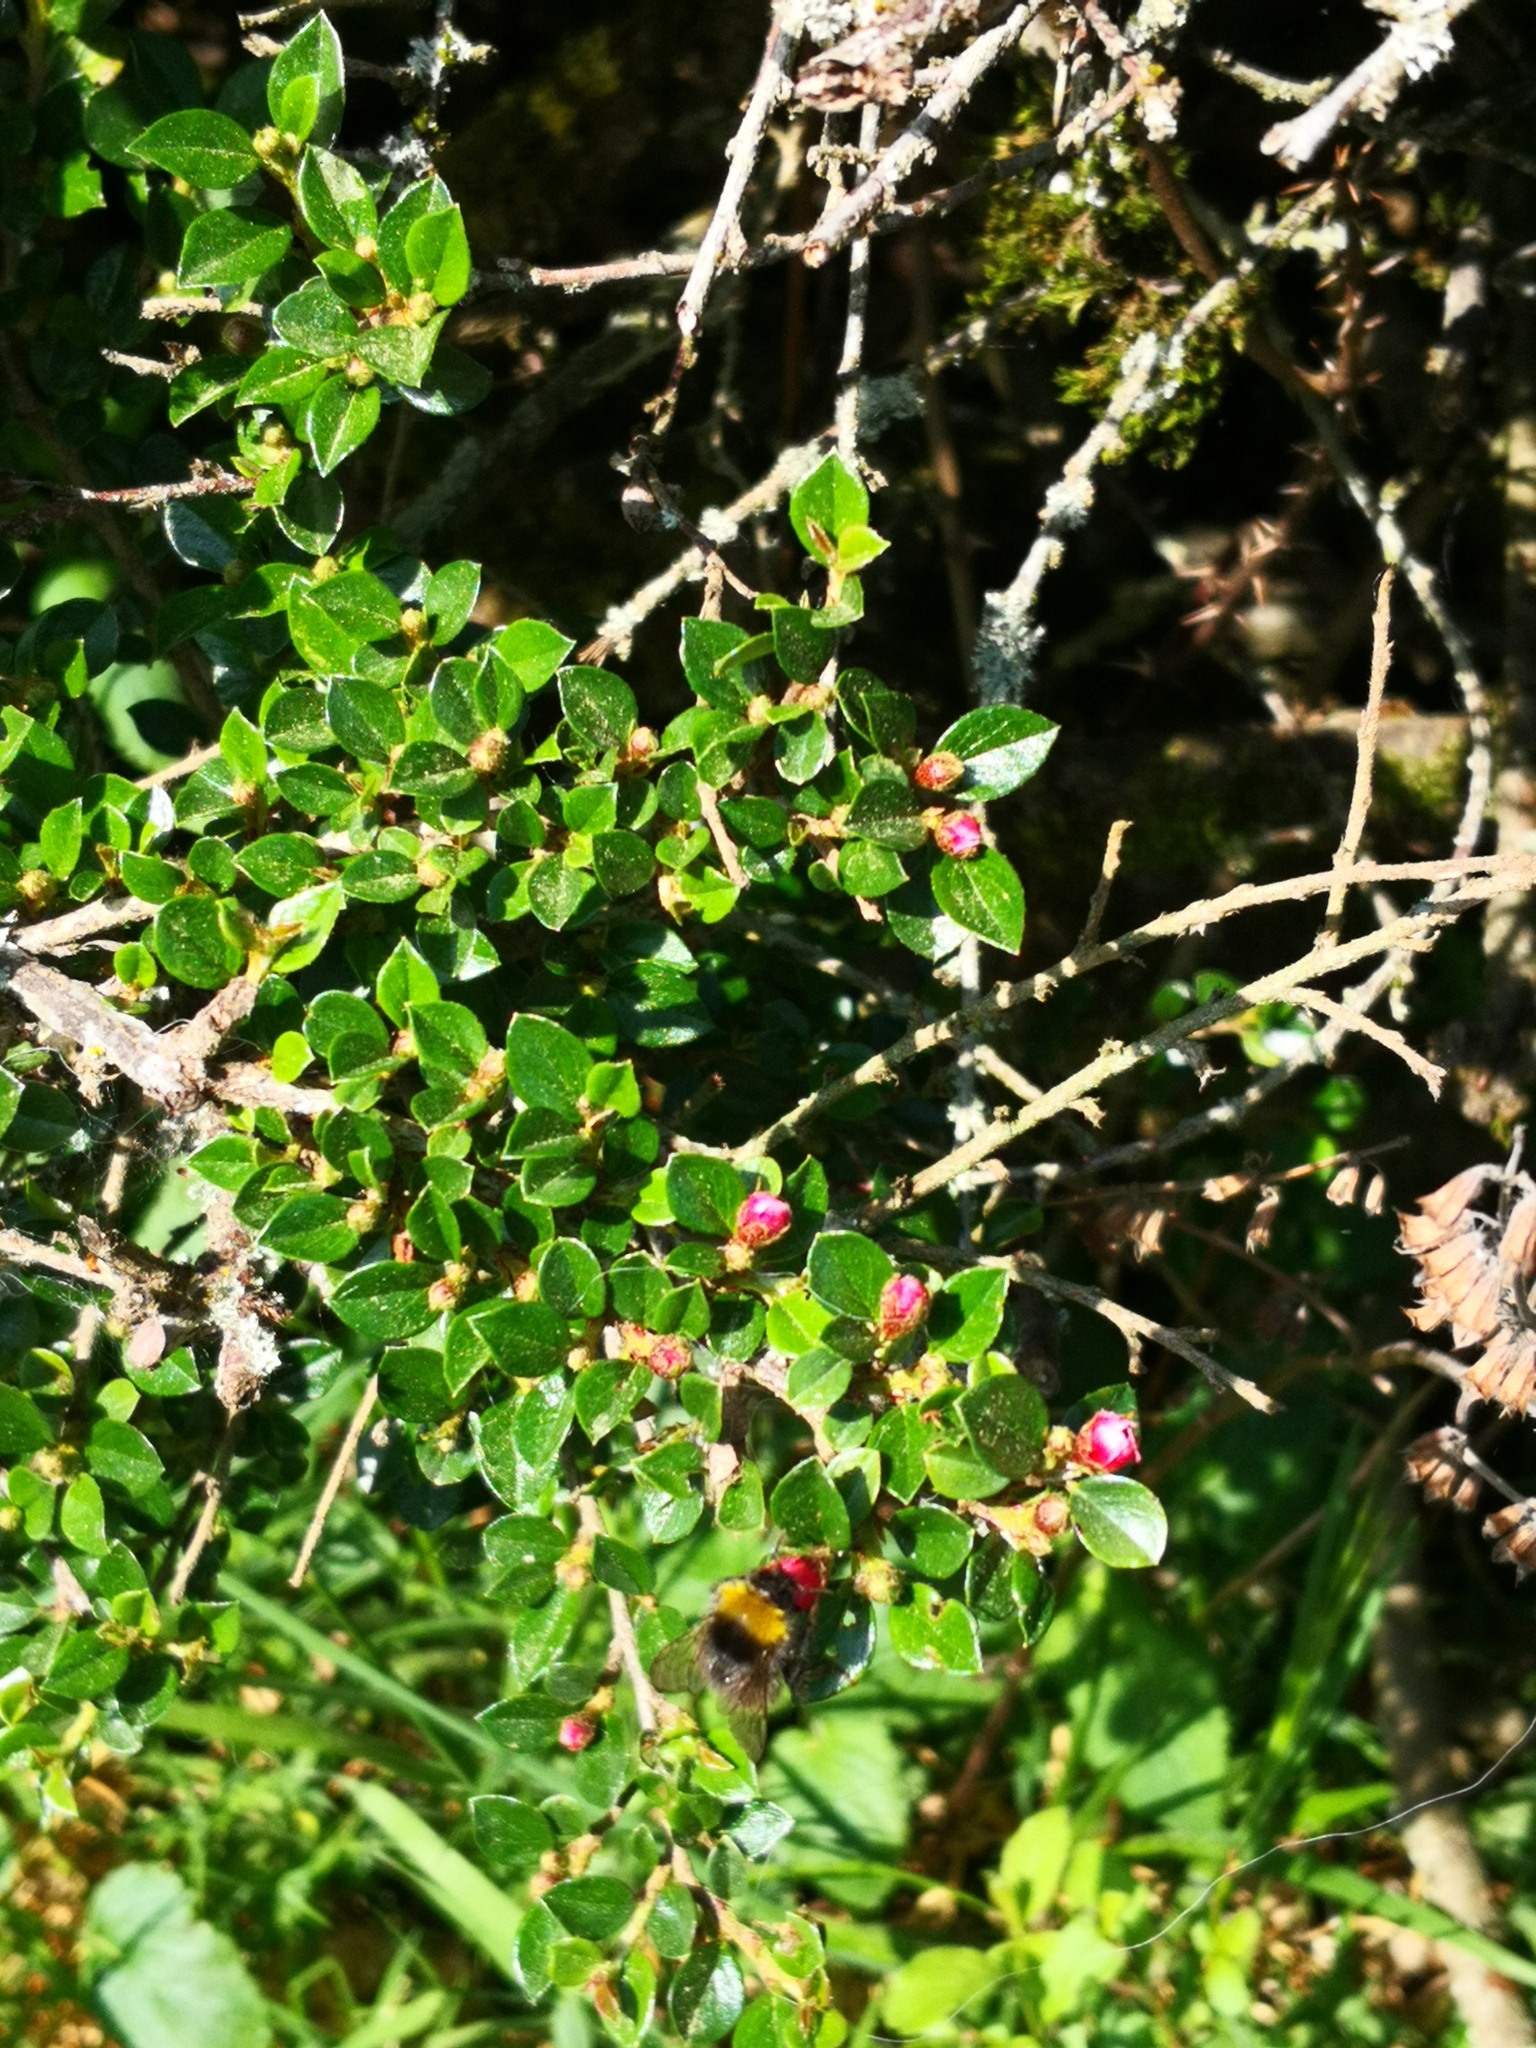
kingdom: Animalia
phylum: Arthropoda
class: Insecta
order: Hymenoptera
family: Apidae
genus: Bombus
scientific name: Bombus pratorum
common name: Early humble-bee
